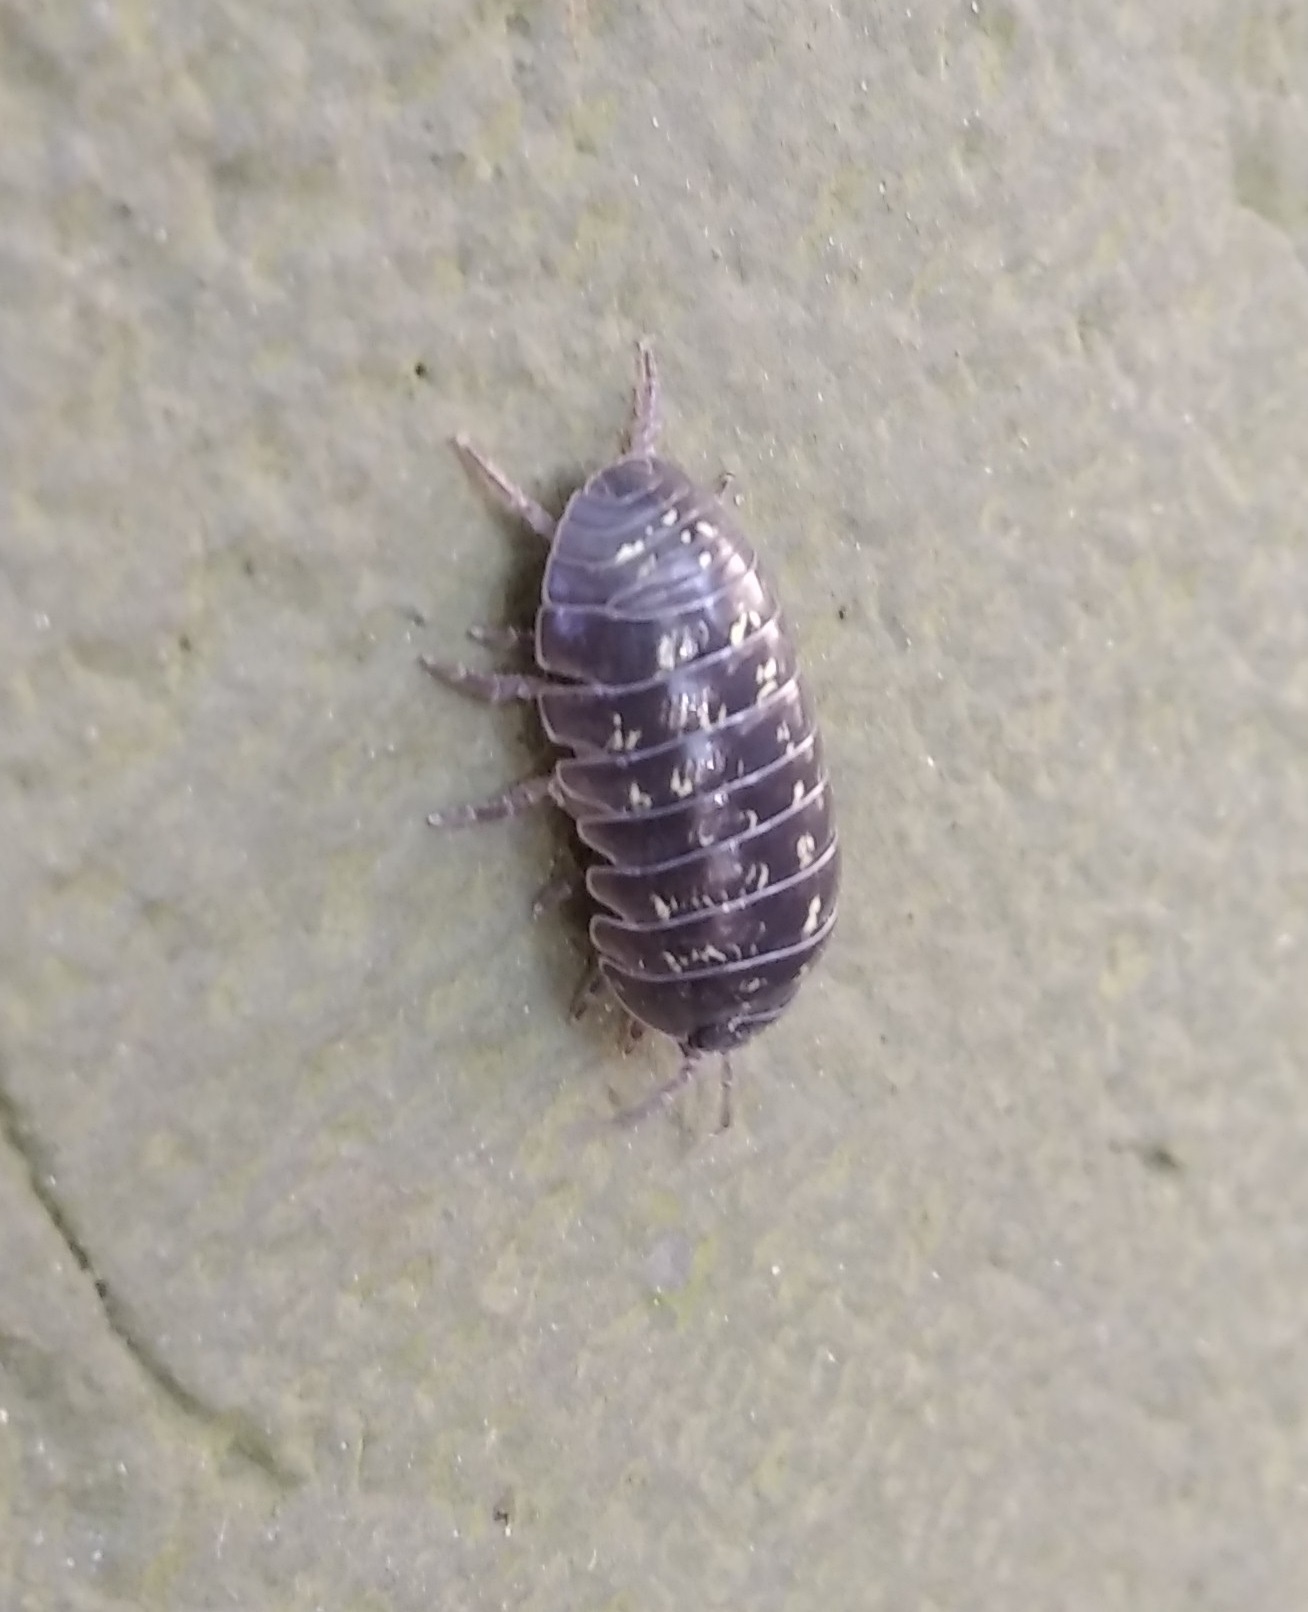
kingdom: Animalia
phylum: Arthropoda
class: Malacostraca
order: Isopoda
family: Armadillidiidae
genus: Armadillidium
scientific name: Armadillidium vulgare
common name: Common pill woodlouse
